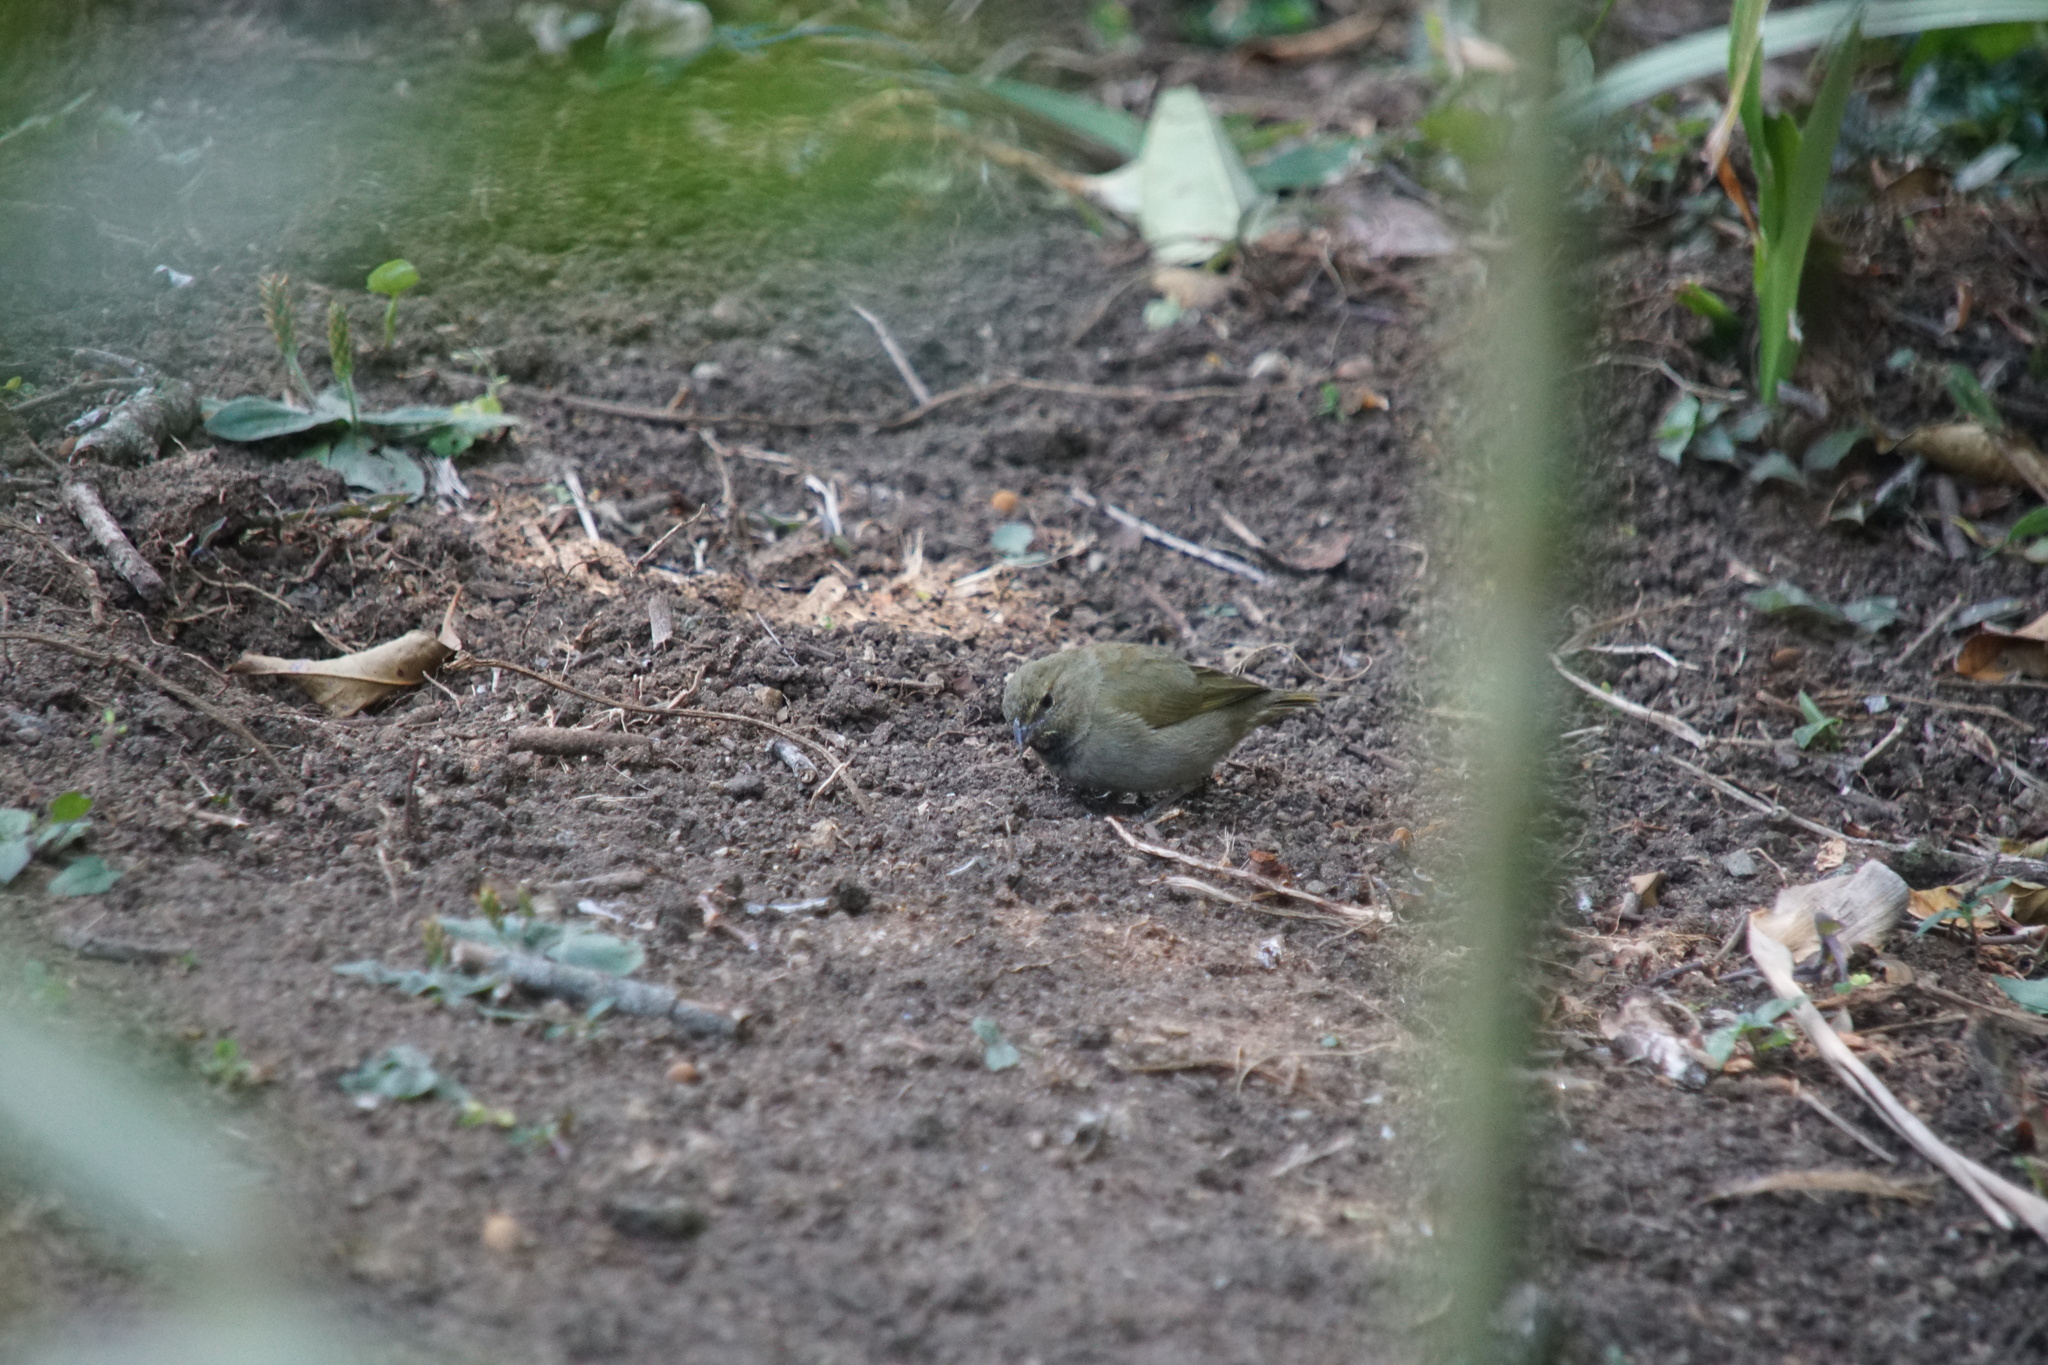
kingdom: Animalia
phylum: Chordata
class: Aves
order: Passeriformes
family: Thraupidae
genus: Tiaris
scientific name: Tiaris olivaceus
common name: Yellow-faced grassquit
